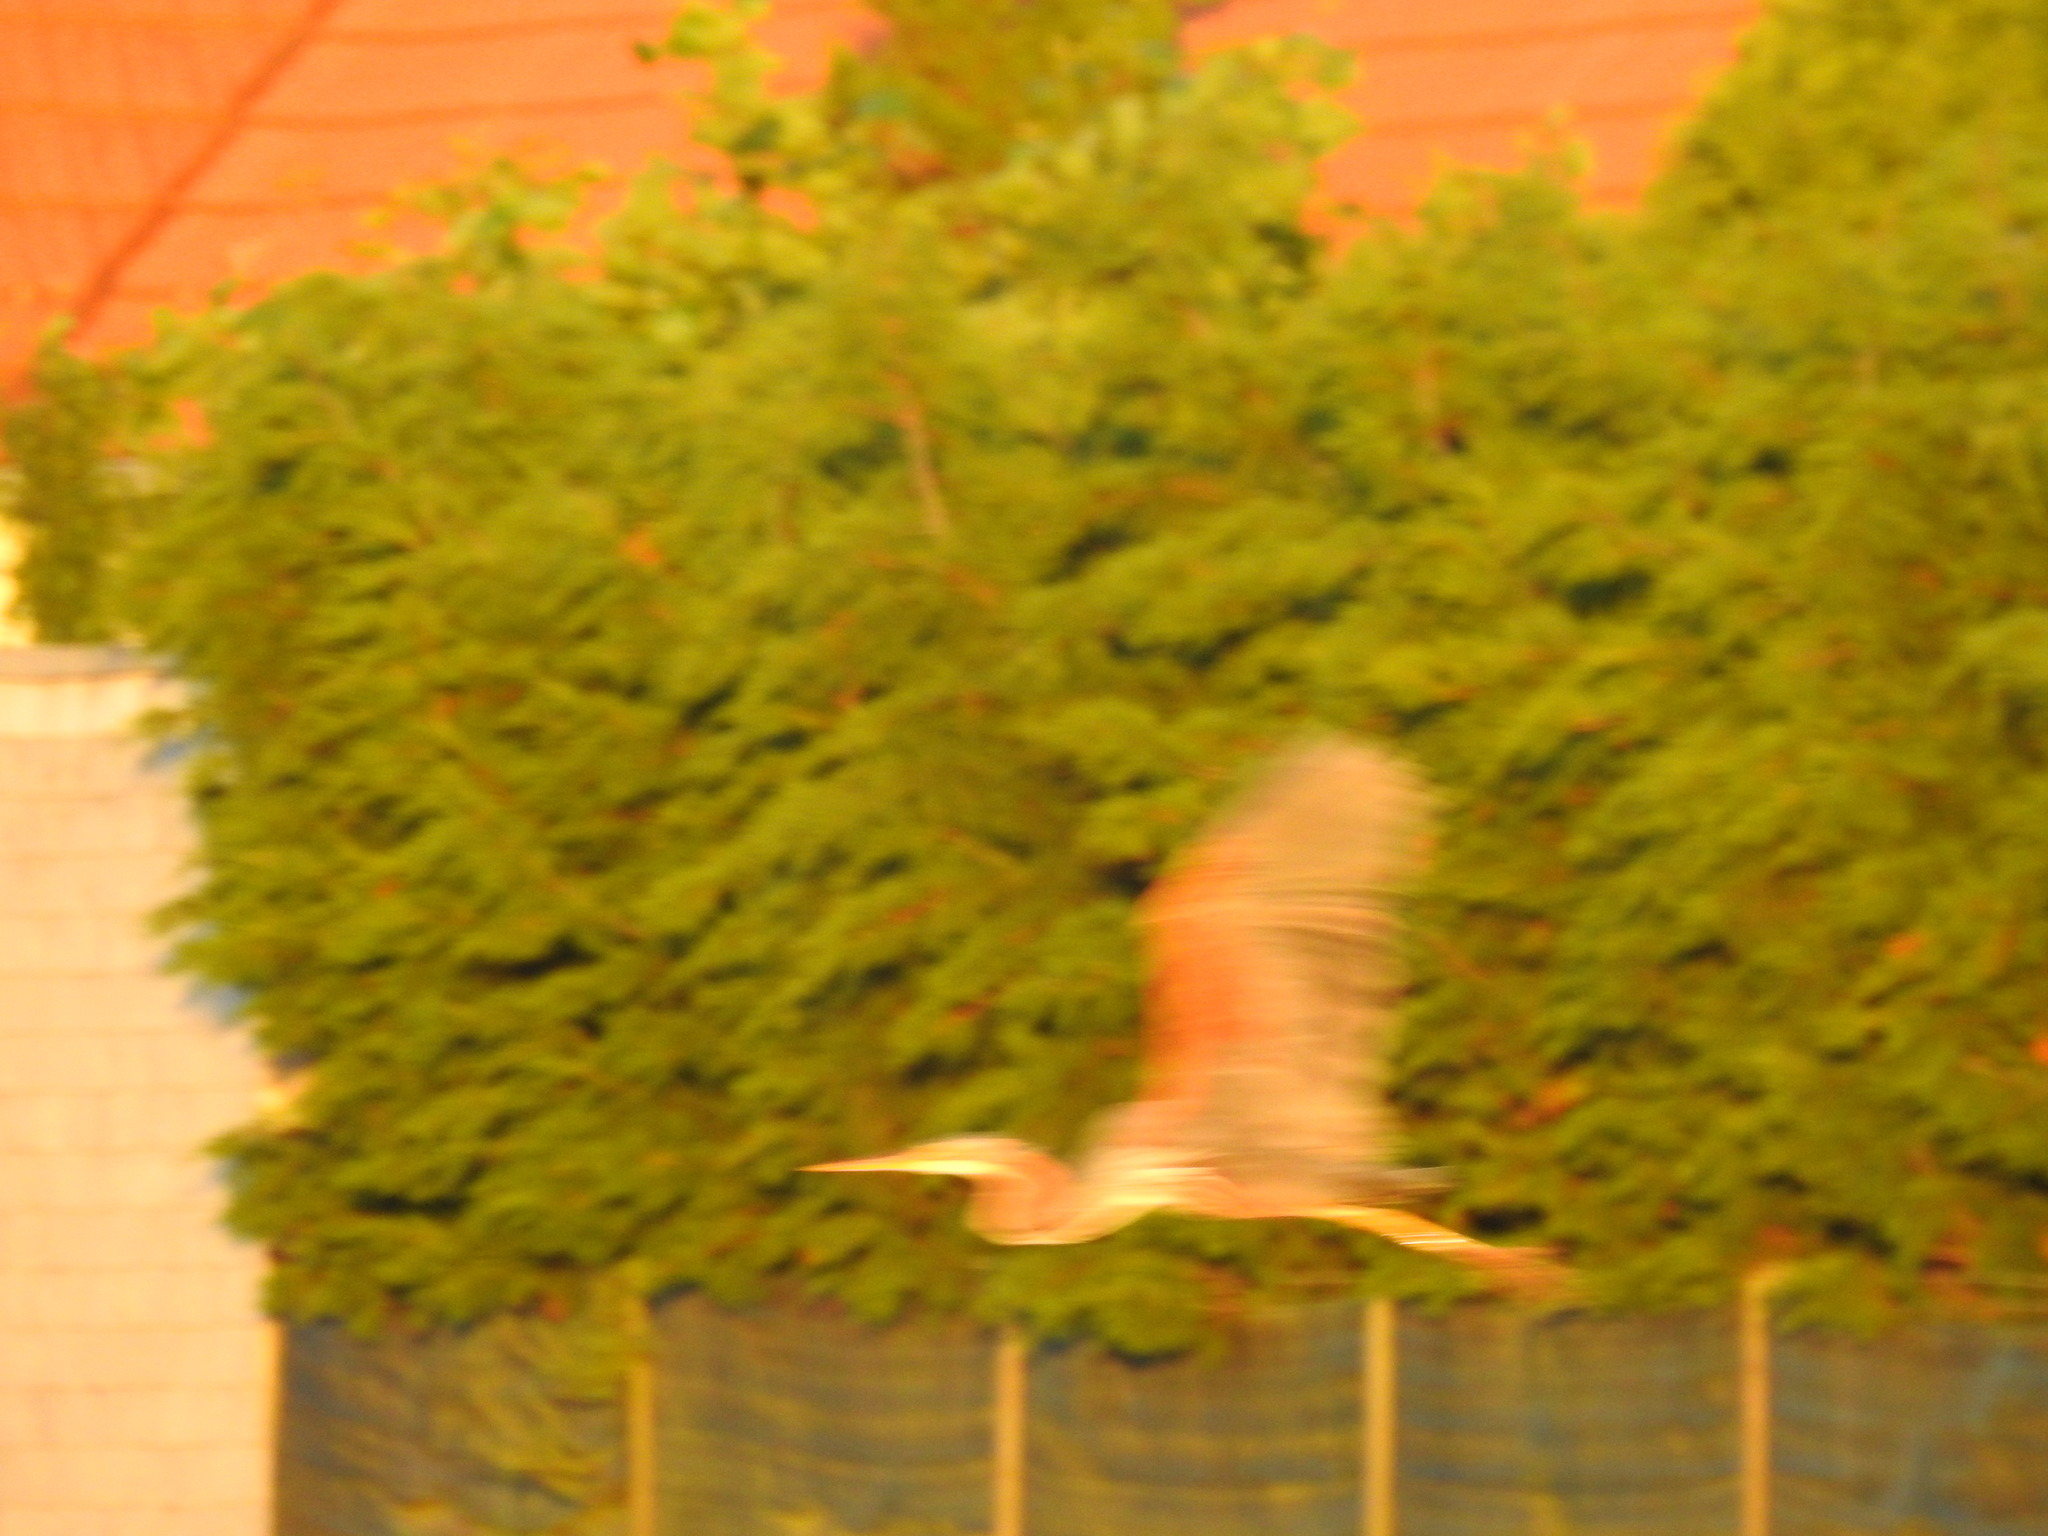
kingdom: Animalia
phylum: Chordata
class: Aves
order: Pelecaniformes
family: Ardeidae
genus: Ardea
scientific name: Ardea purpurea
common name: Purple heron
